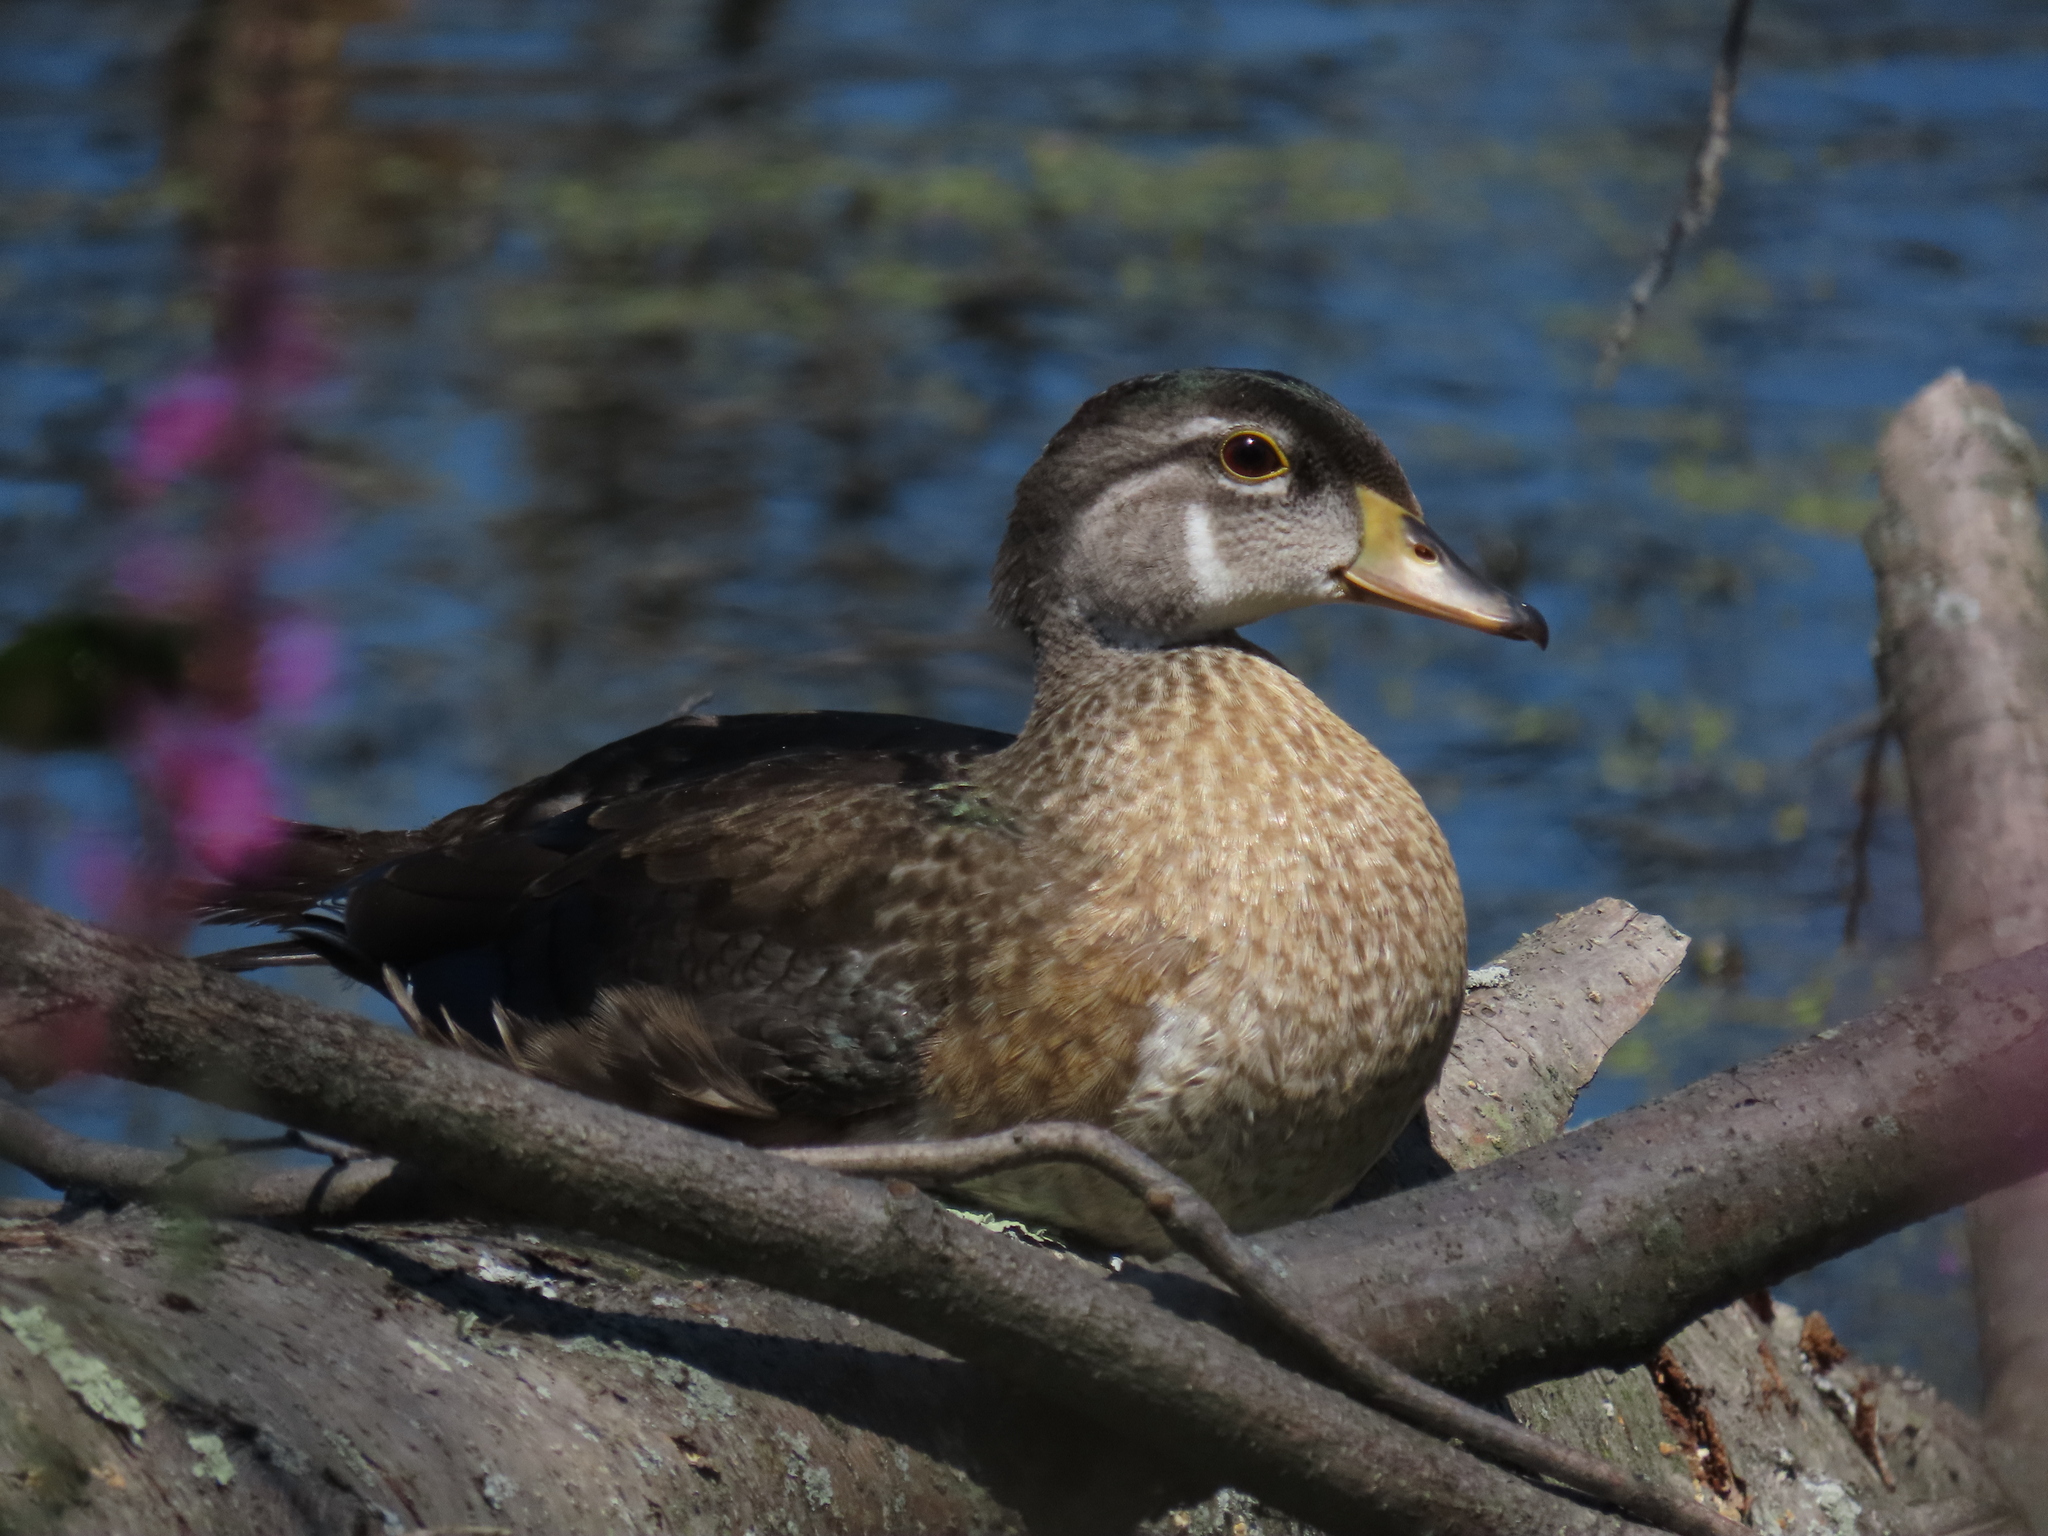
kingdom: Animalia
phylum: Chordata
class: Aves
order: Anseriformes
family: Anatidae
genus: Aix
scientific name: Aix sponsa
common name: Wood duck
